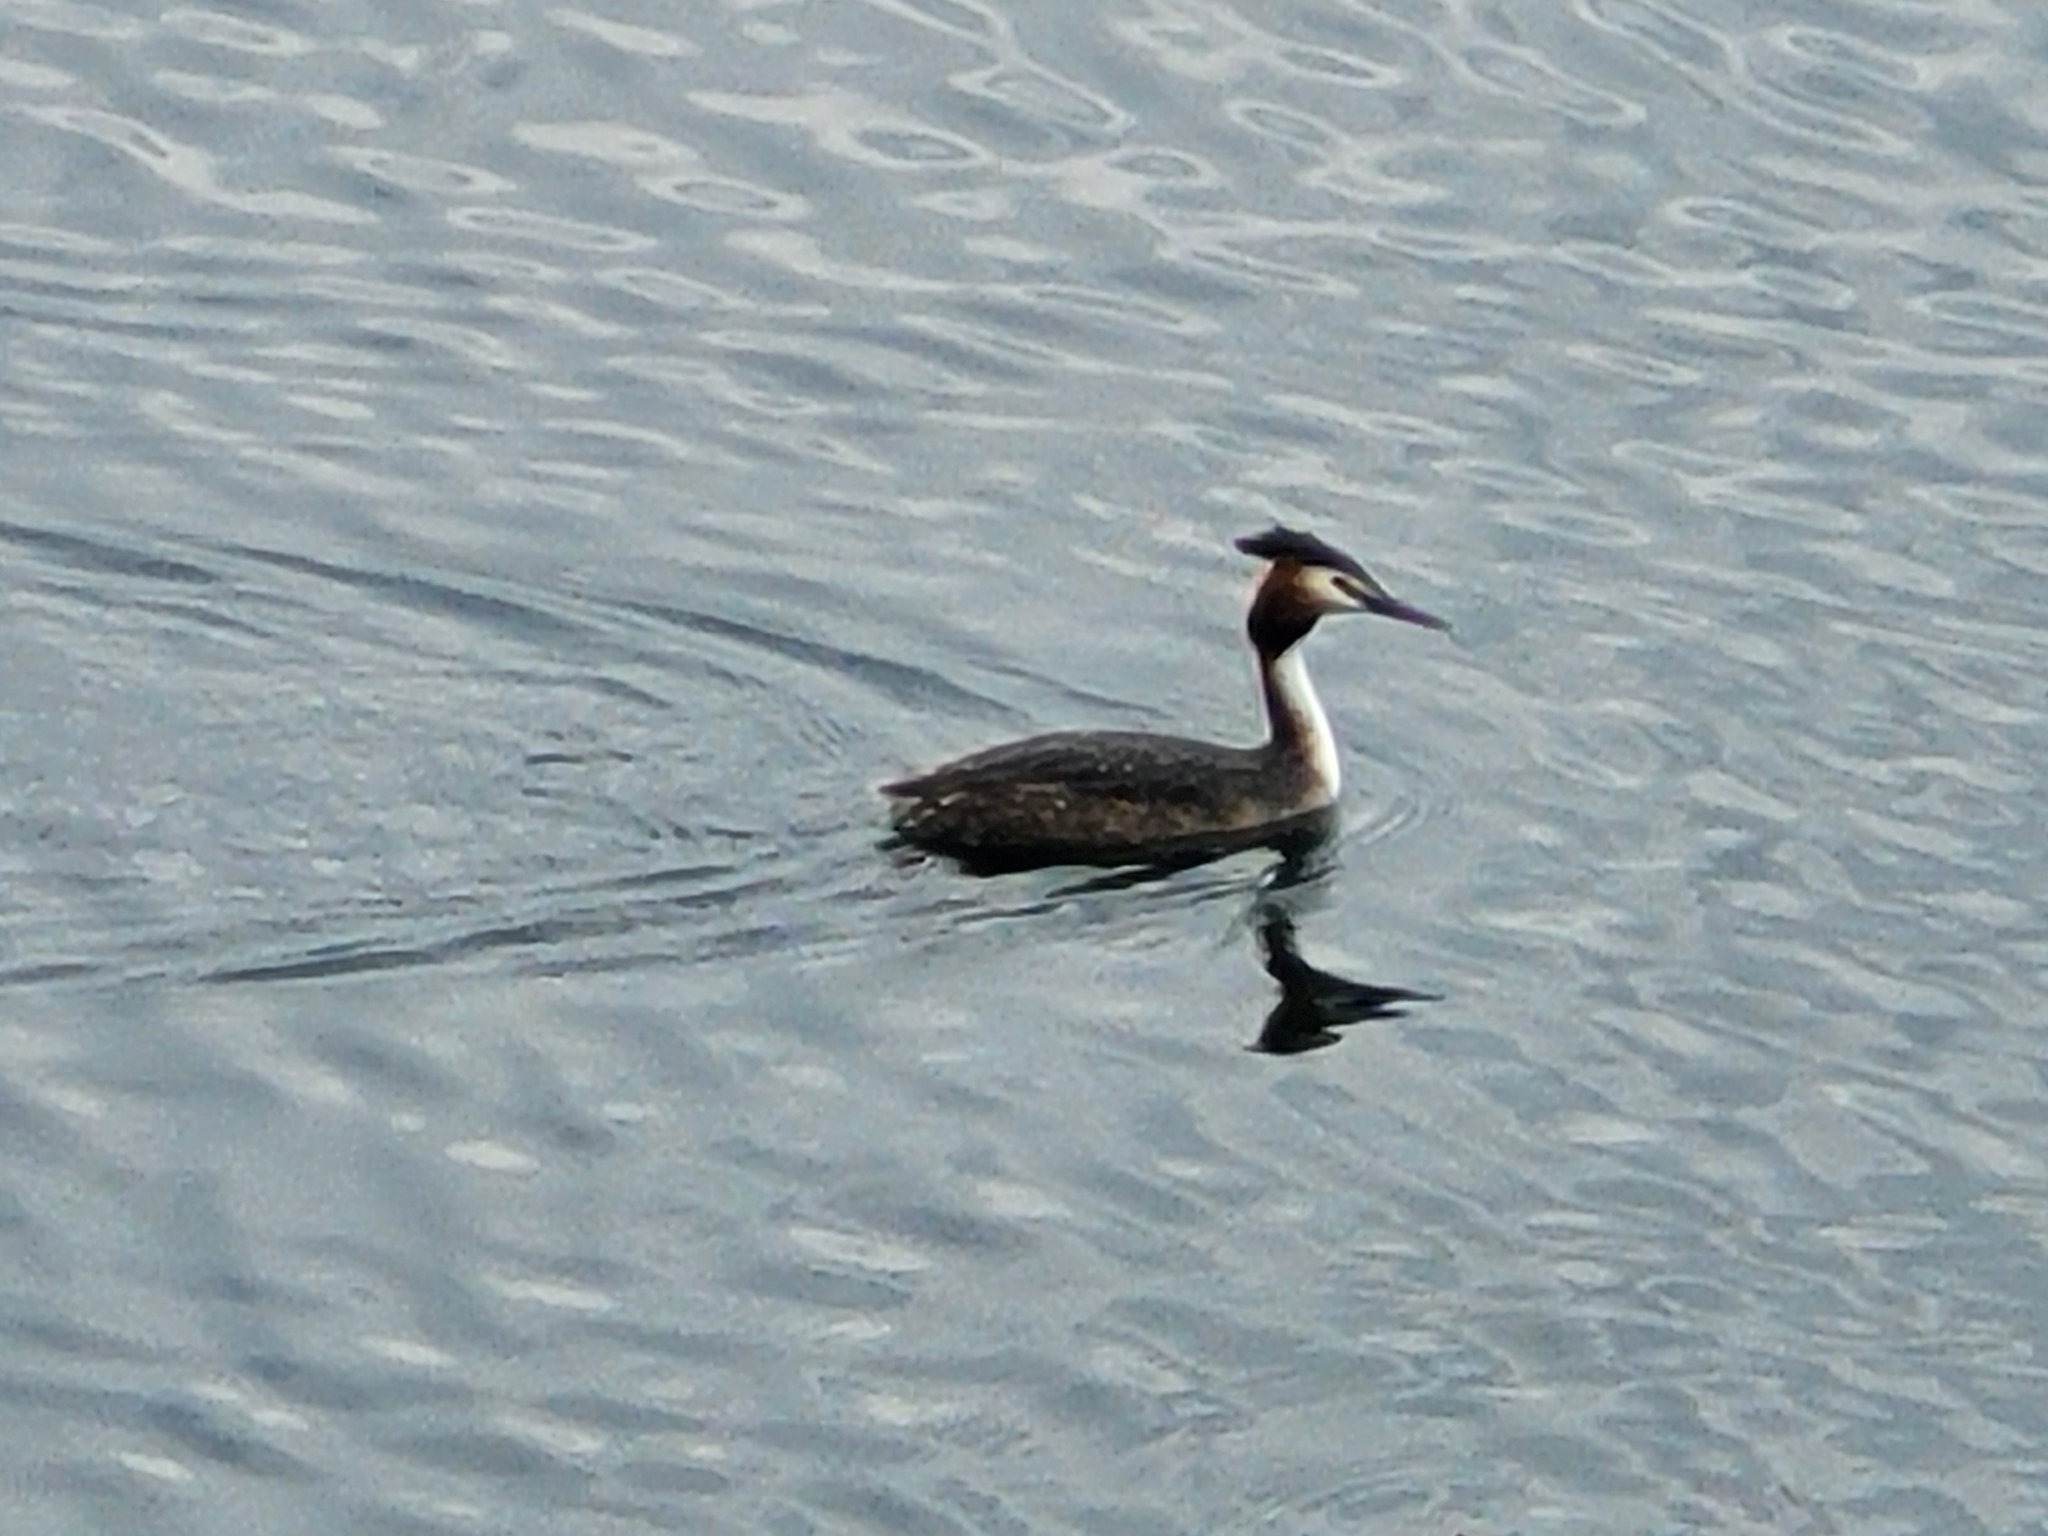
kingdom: Animalia
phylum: Chordata
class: Aves
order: Podicipediformes
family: Podicipedidae
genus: Podiceps
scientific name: Podiceps cristatus
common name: Great crested grebe
